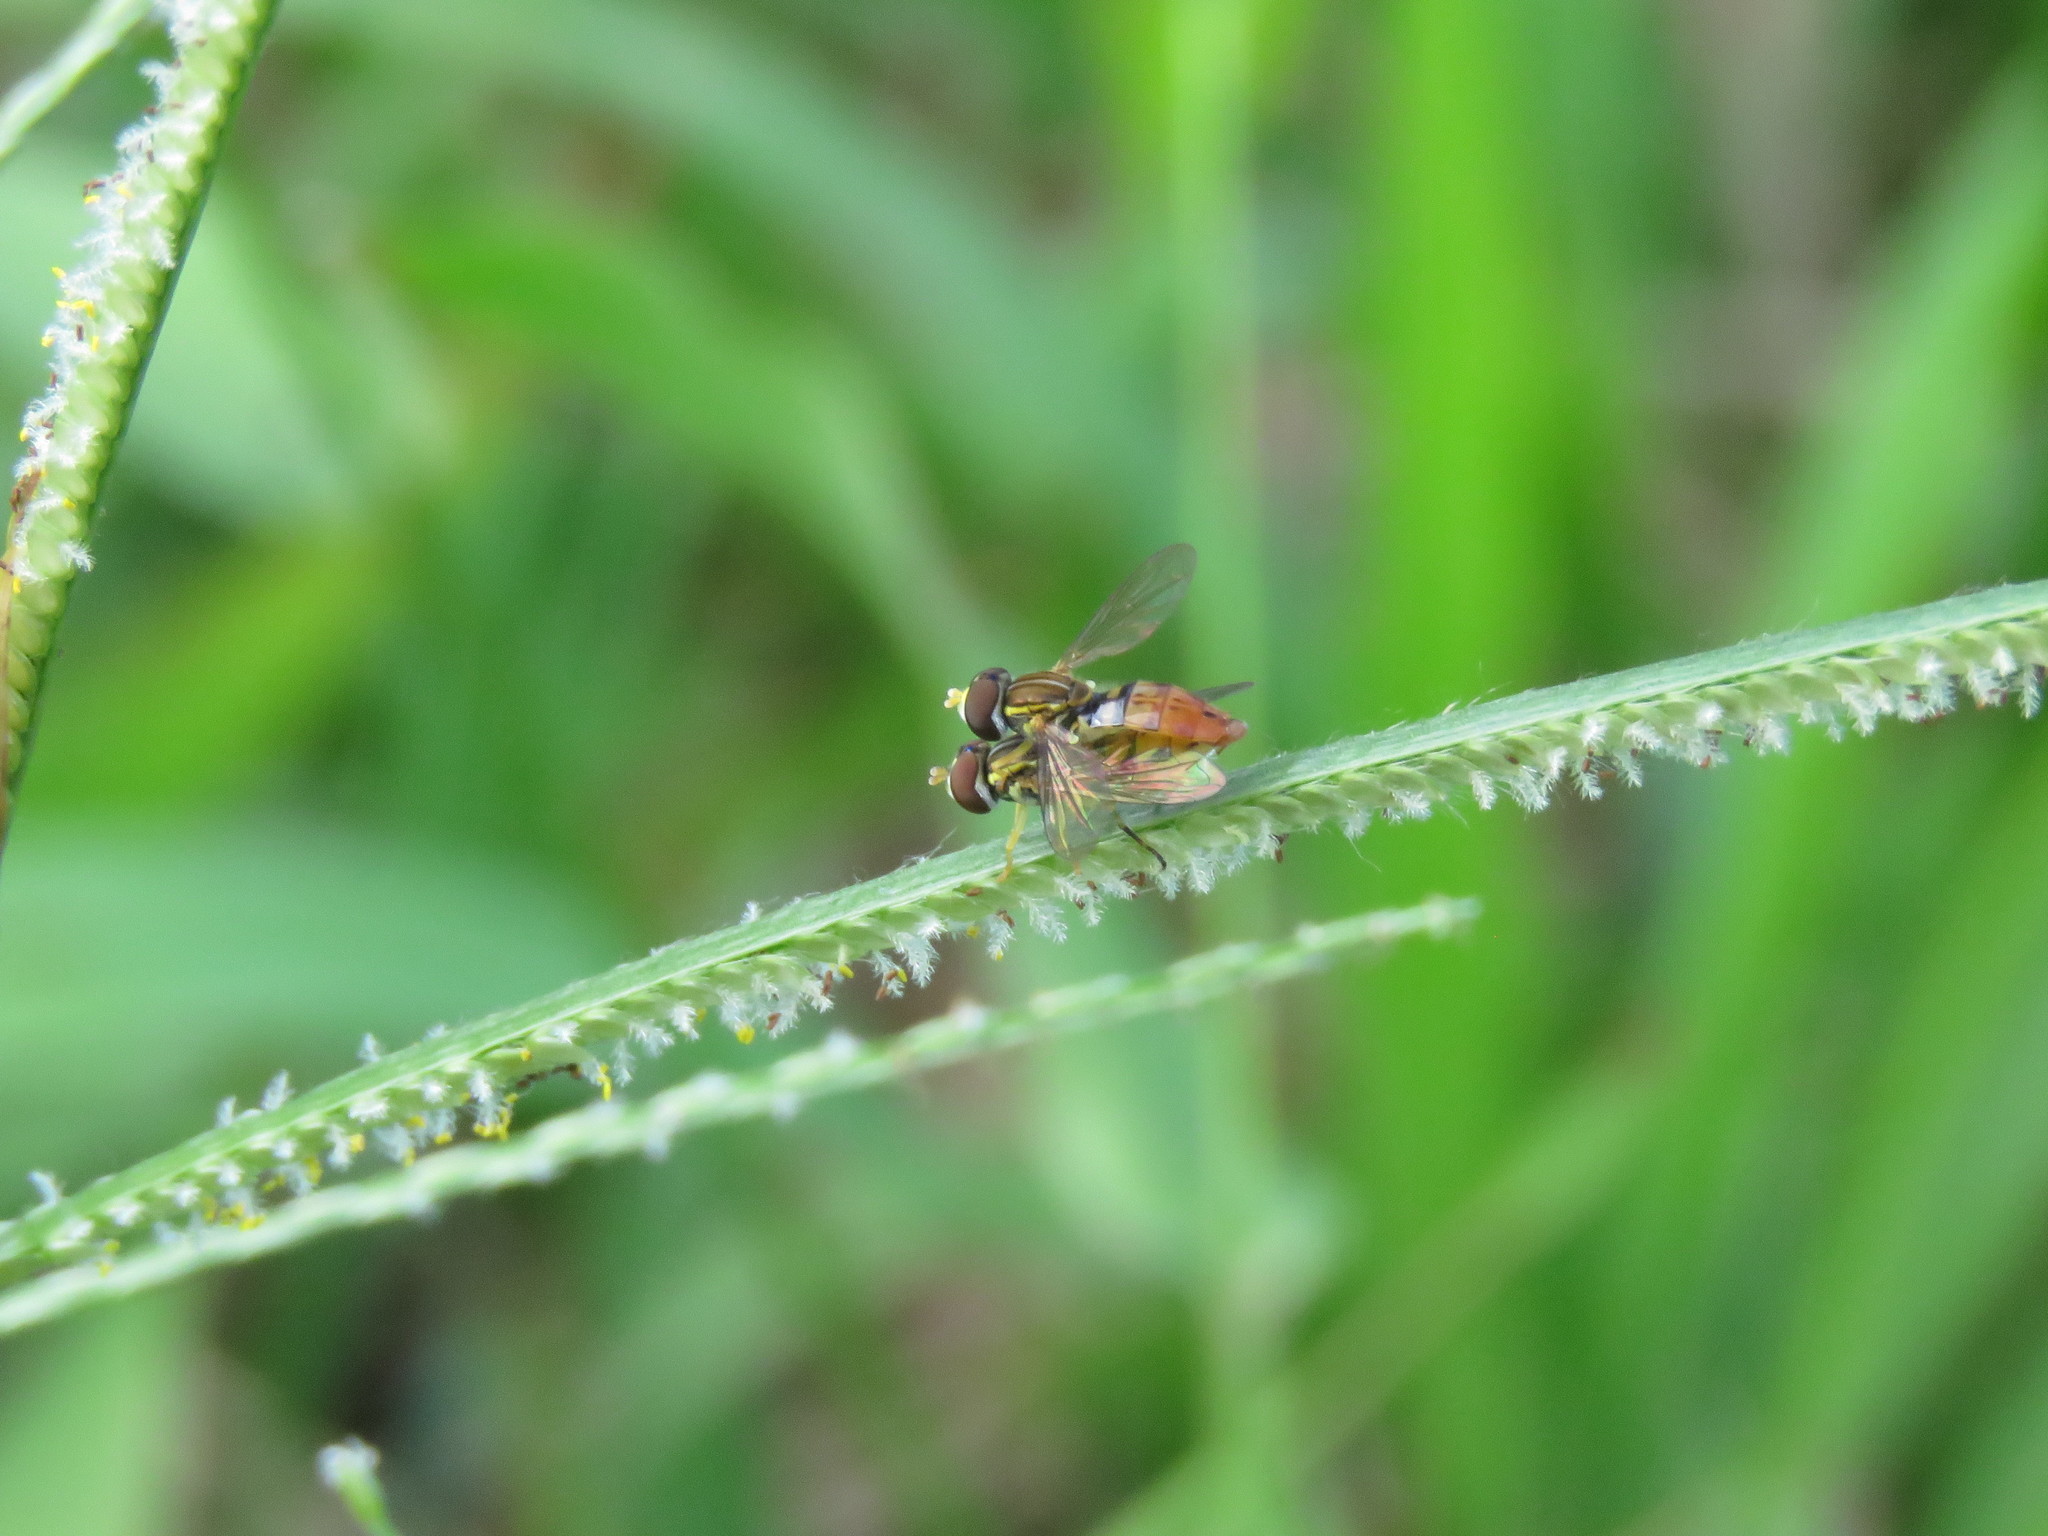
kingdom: Animalia
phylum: Arthropoda
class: Insecta
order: Diptera
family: Syrphidae
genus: Toxomerus
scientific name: Toxomerus floralis
